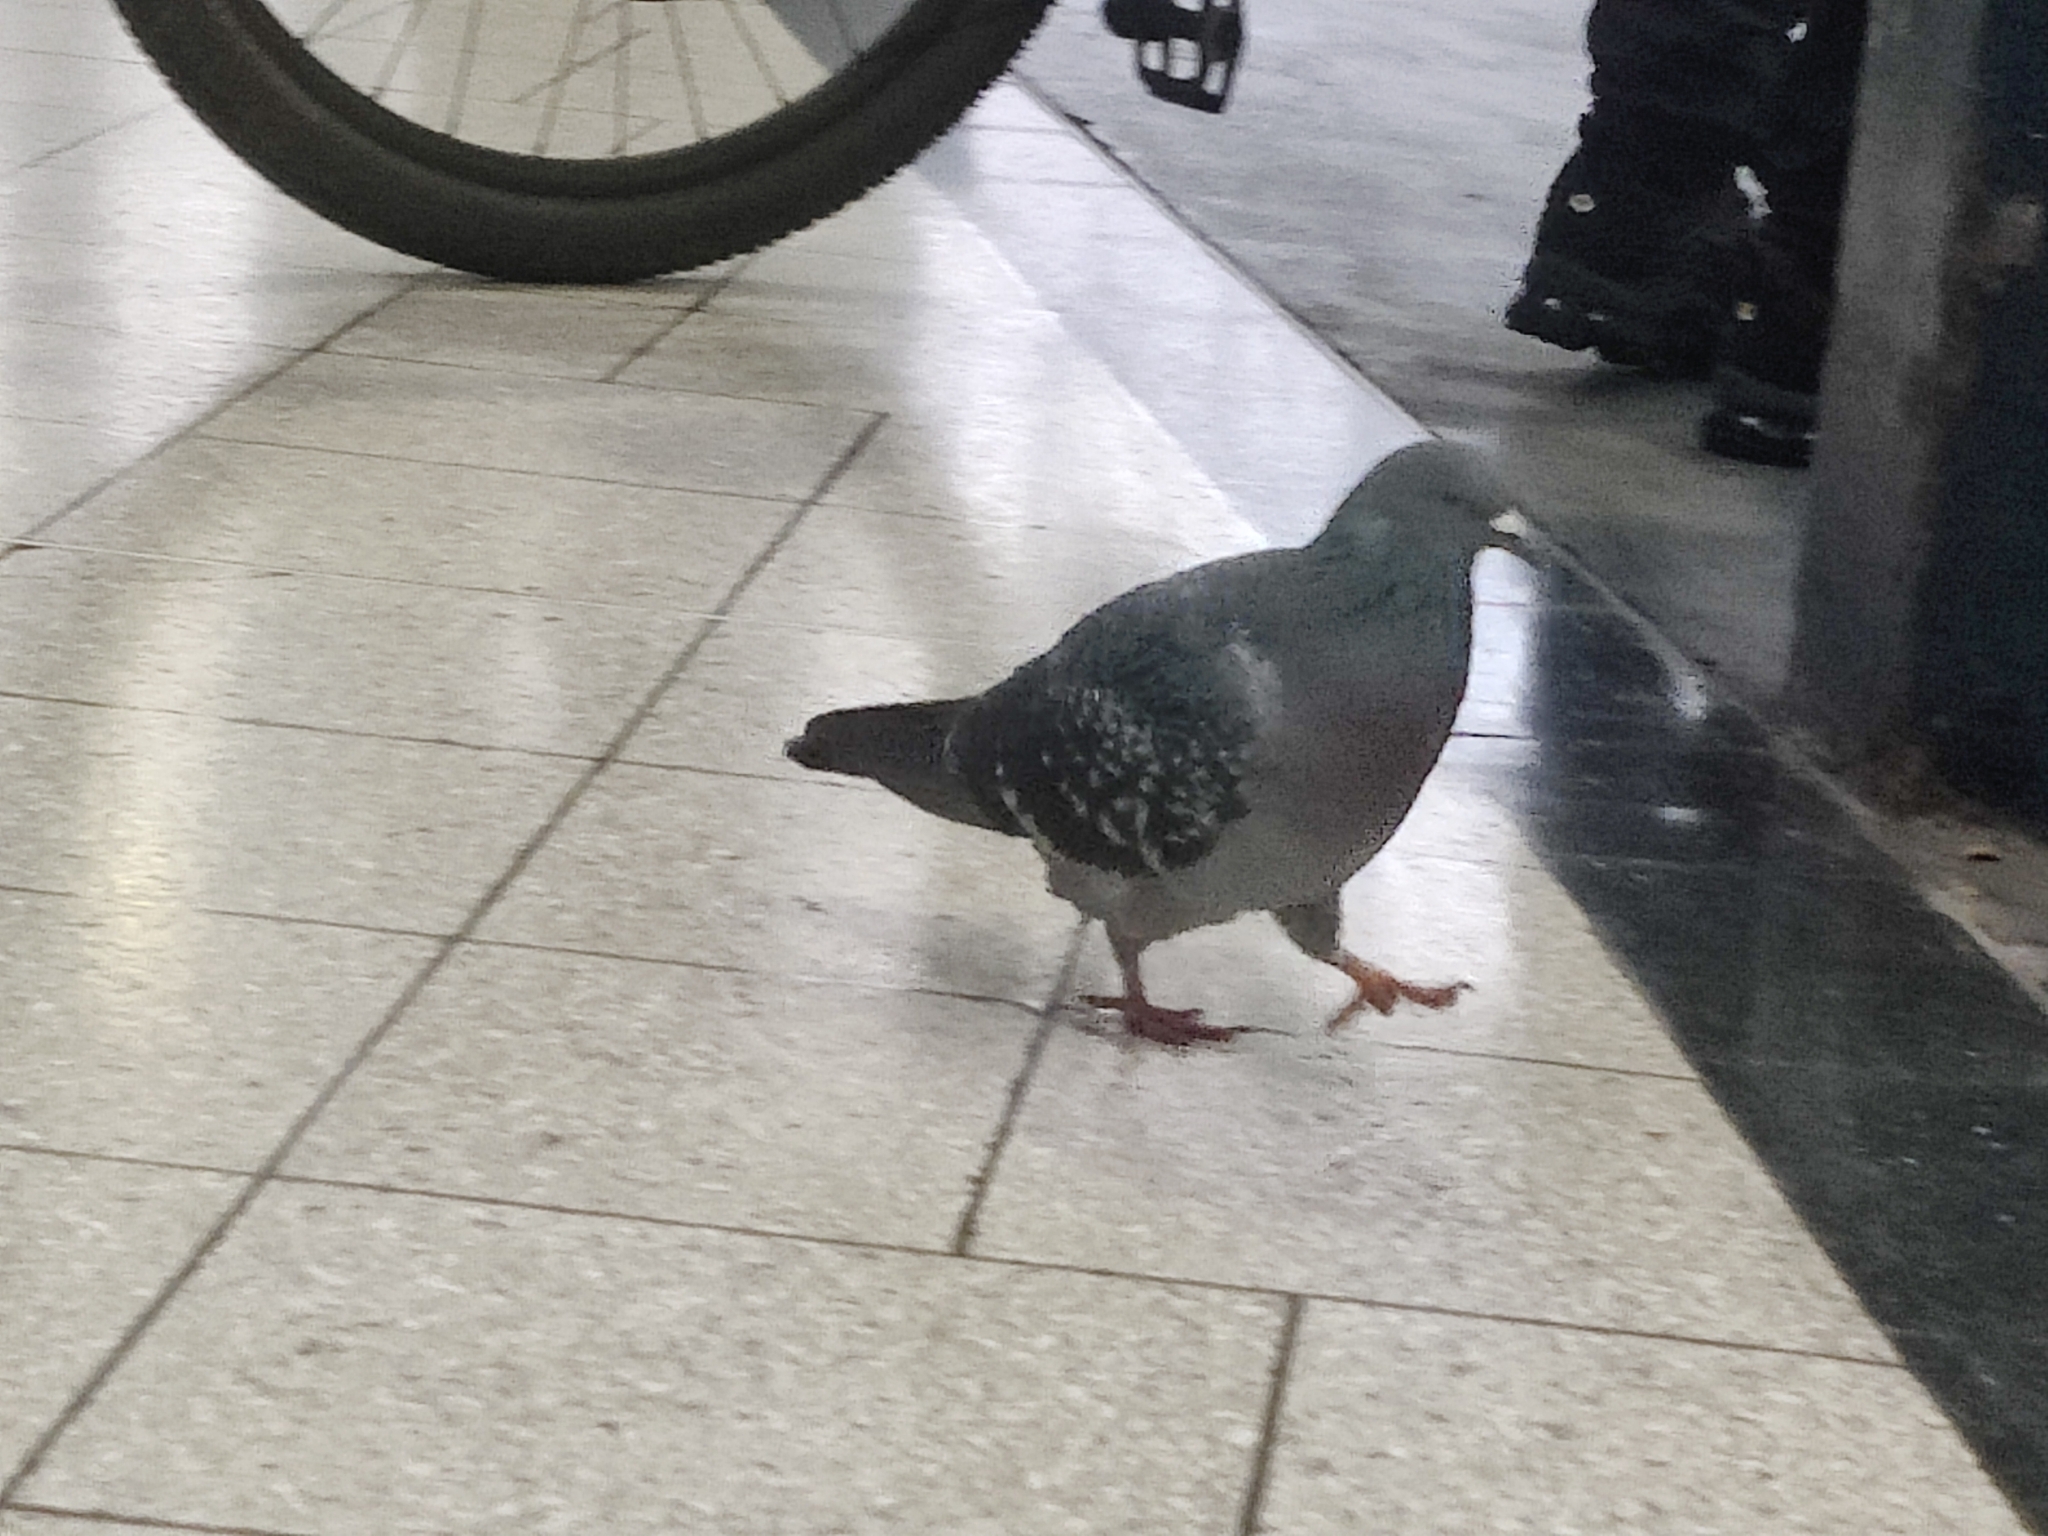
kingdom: Animalia
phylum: Chordata
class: Aves
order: Columbiformes
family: Columbidae
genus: Columba
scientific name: Columba livia
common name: Rock pigeon
